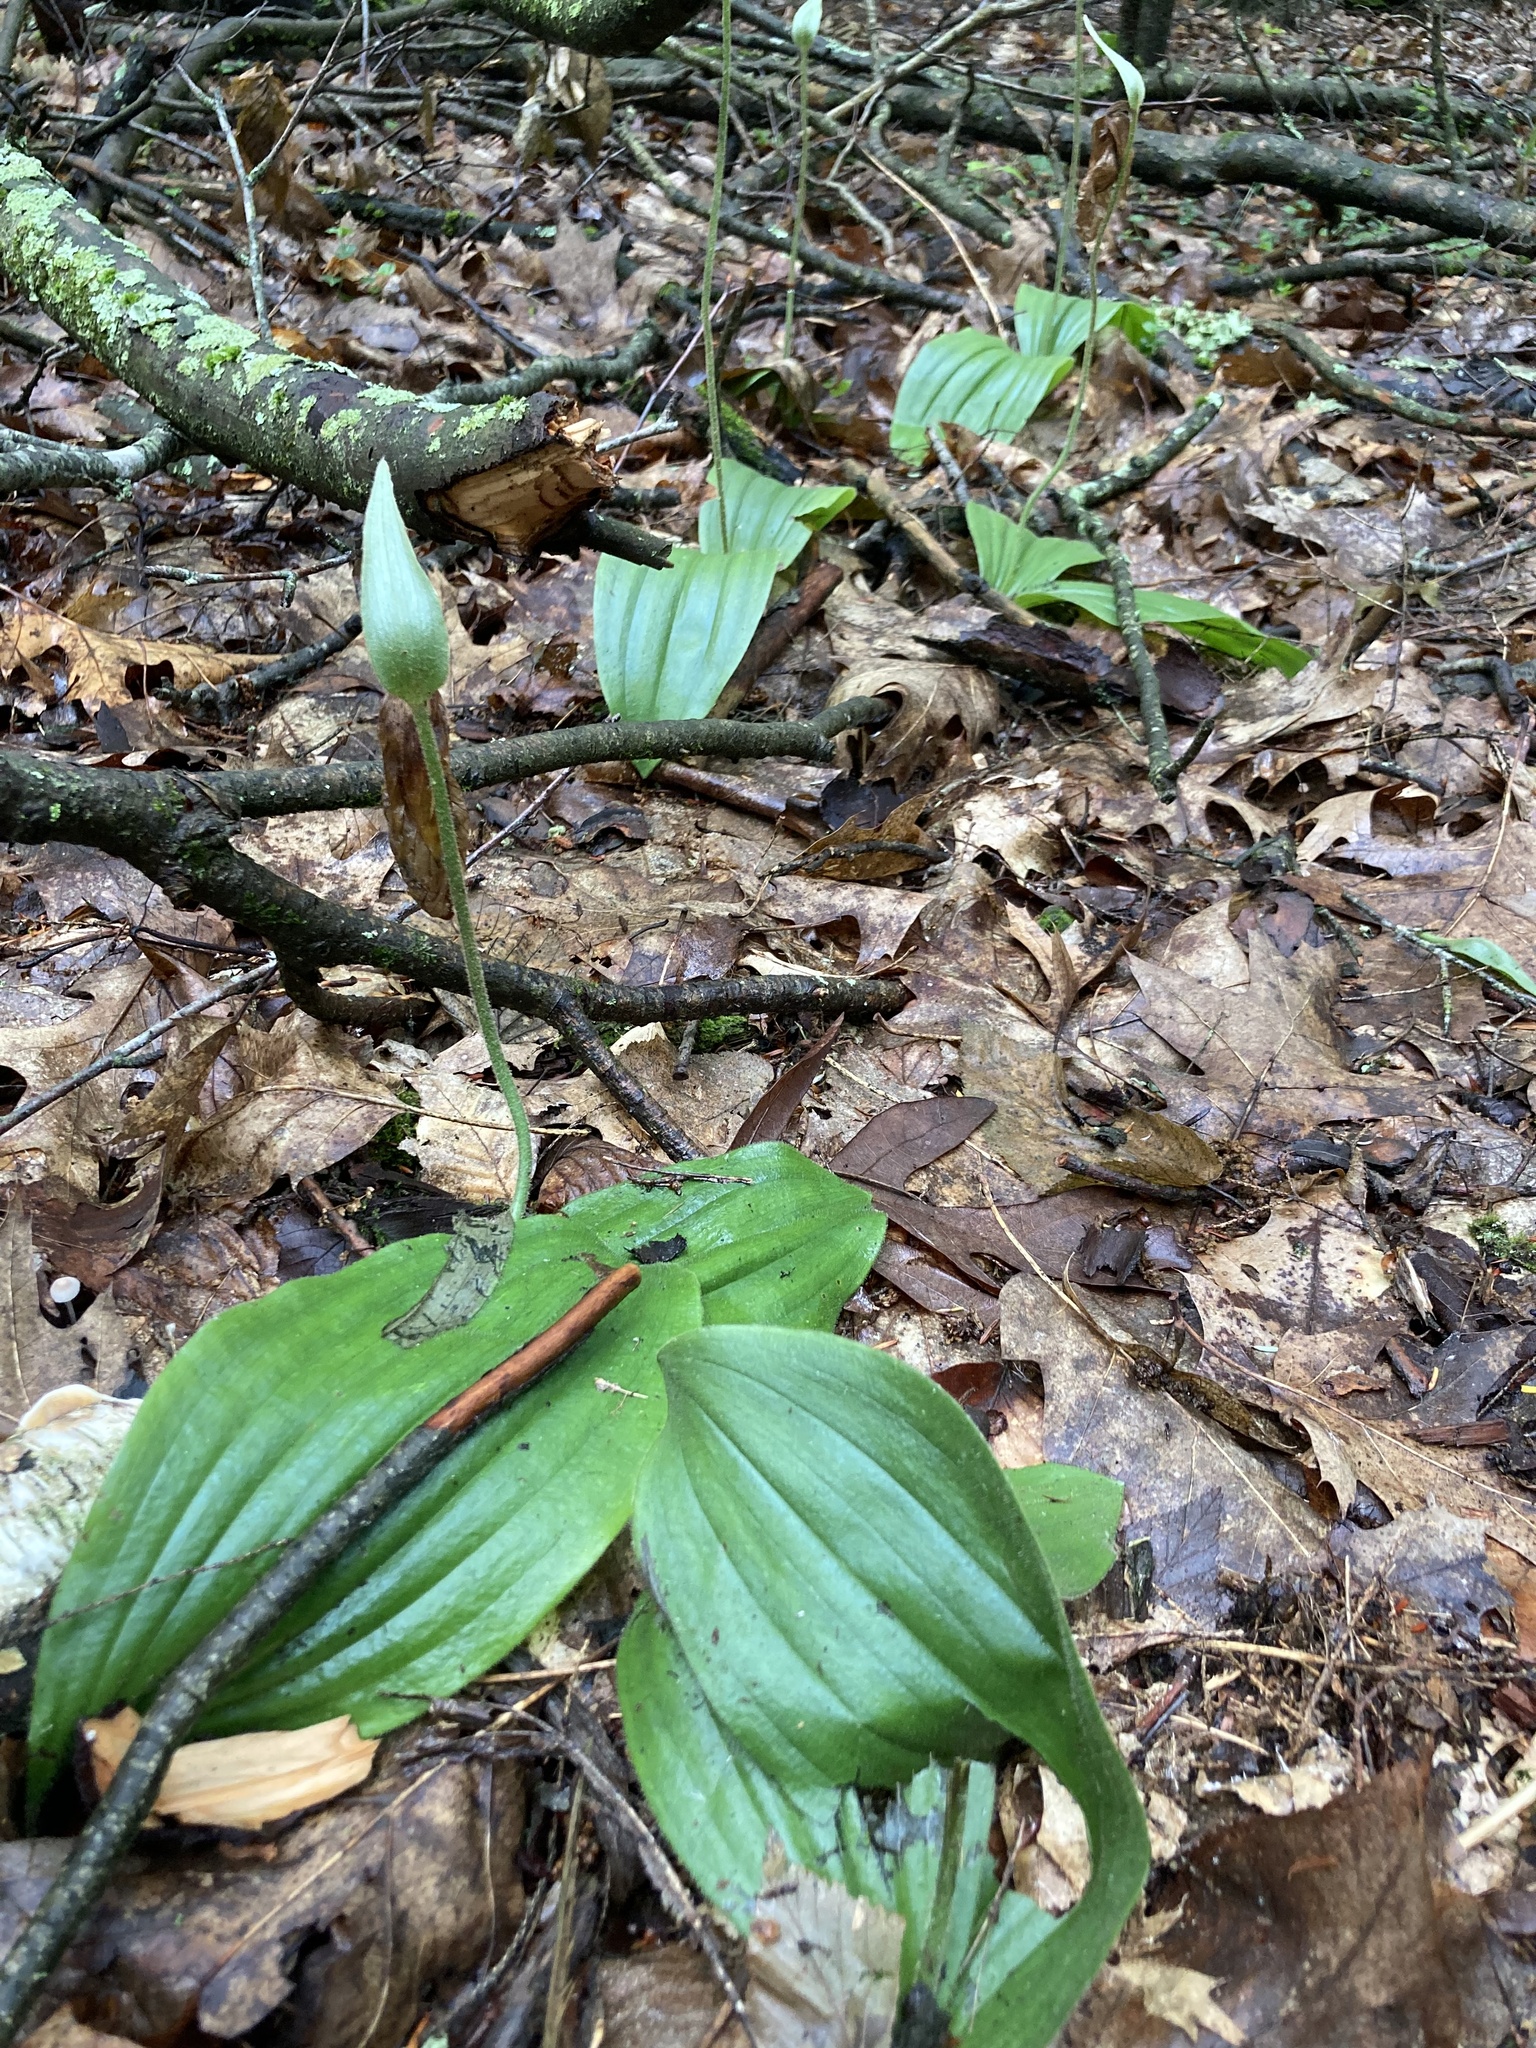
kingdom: Plantae
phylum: Tracheophyta
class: Liliopsida
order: Asparagales
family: Orchidaceae
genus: Cypripedium
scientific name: Cypripedium acaule
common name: Pink lady's-slipper
